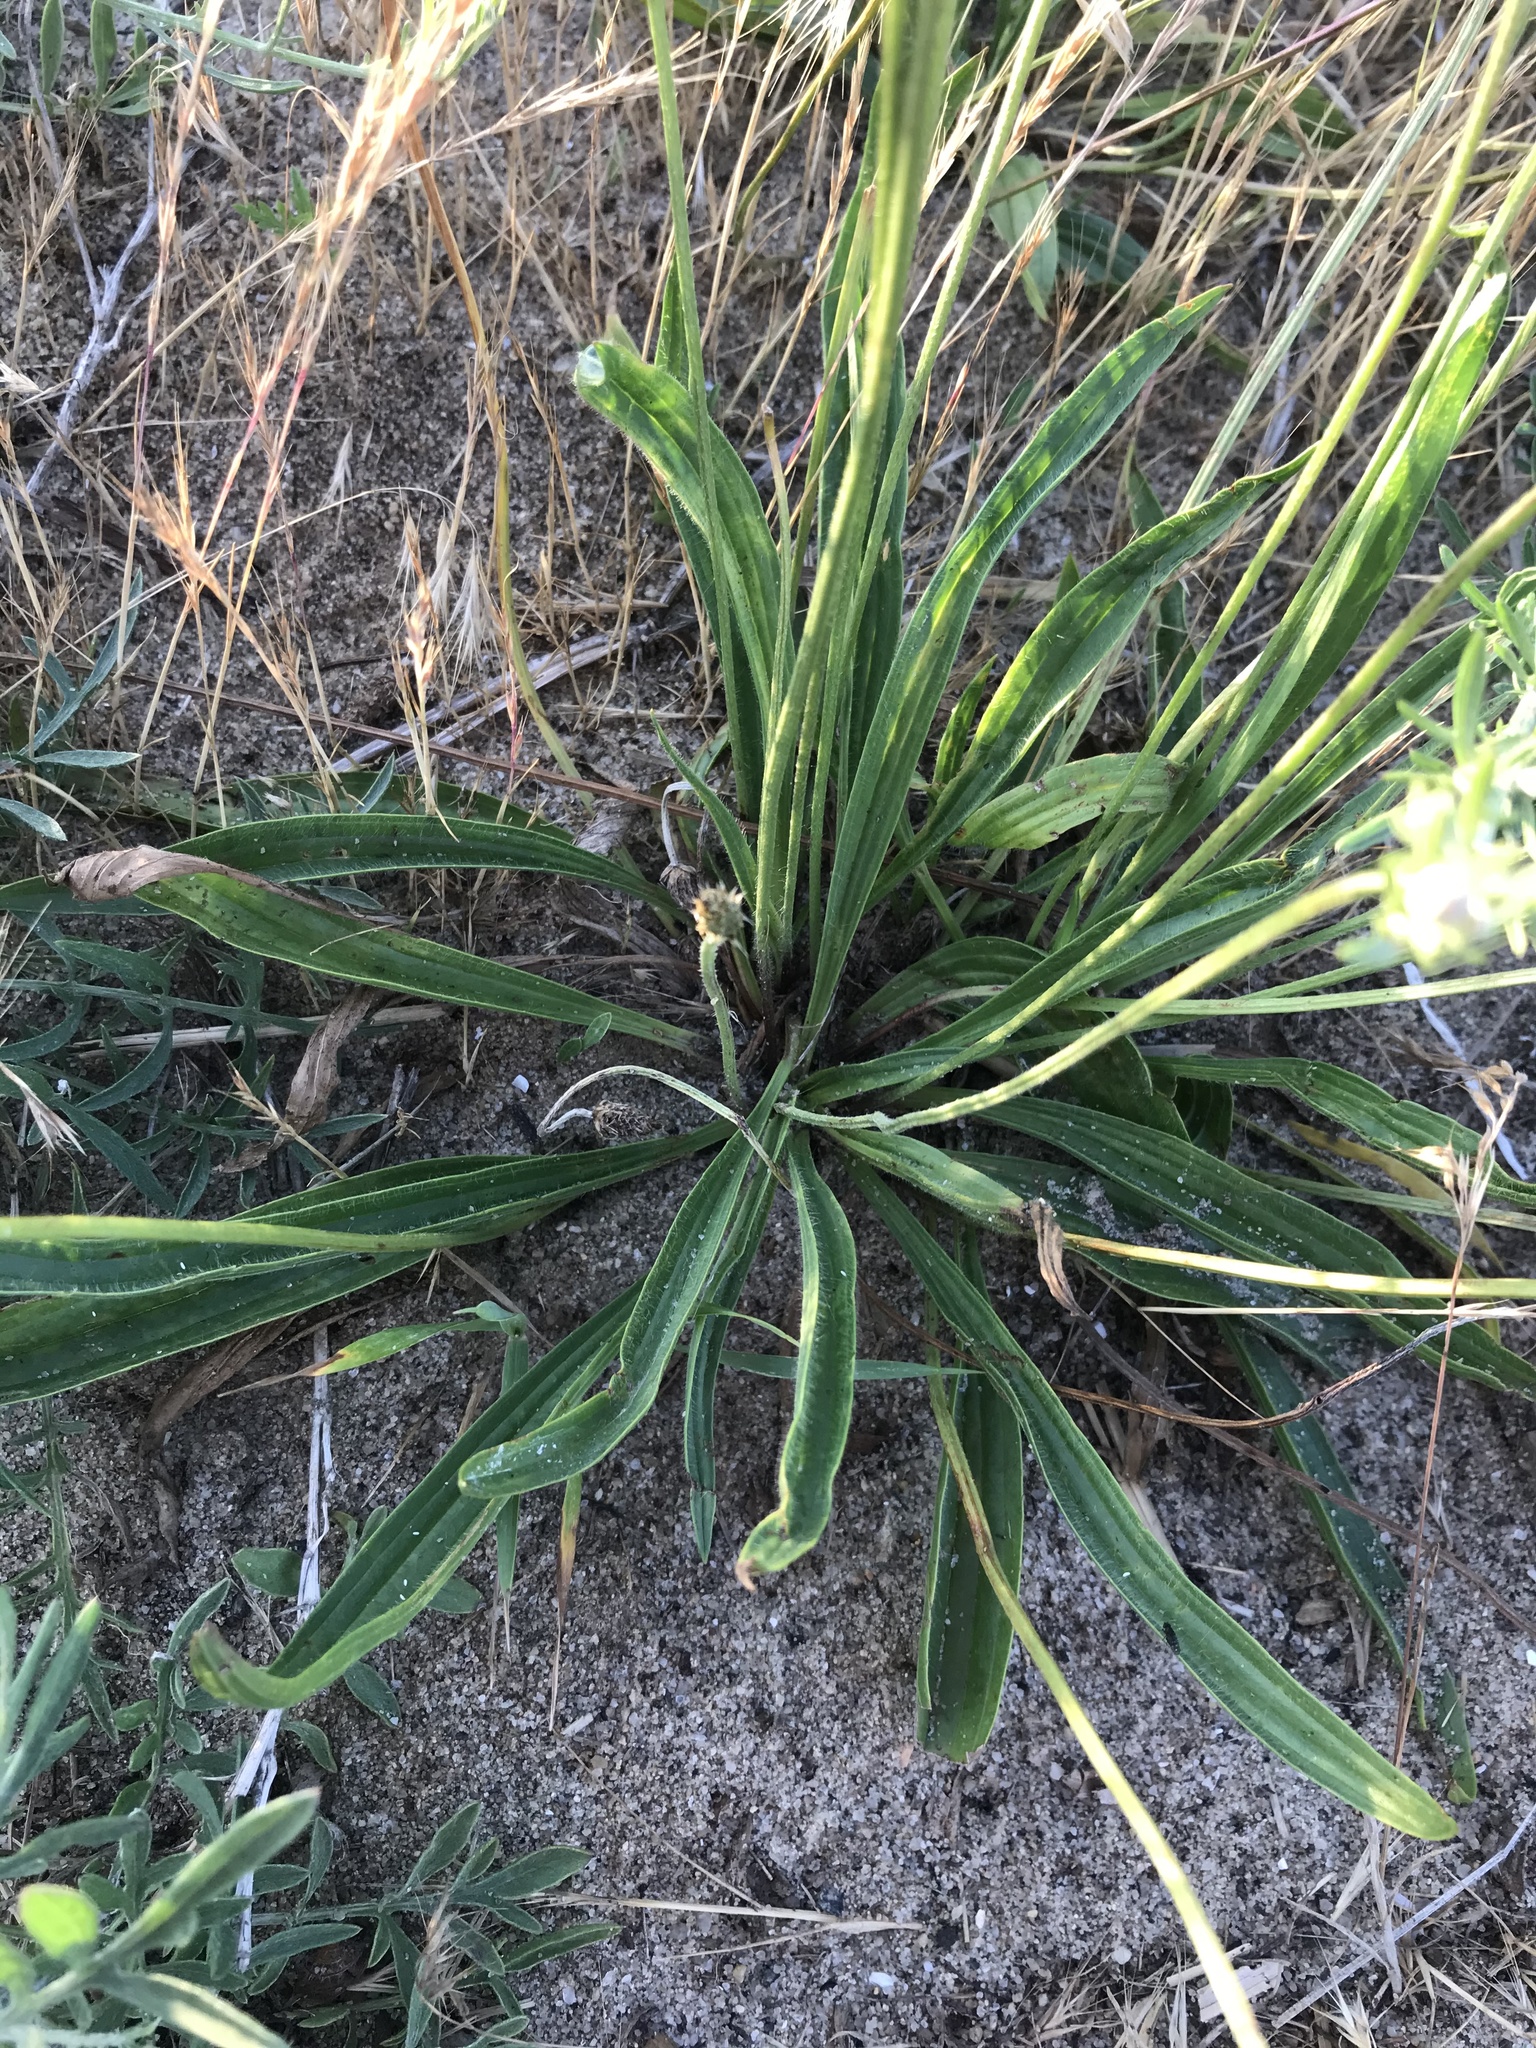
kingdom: Plantae
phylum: Tracheophyta
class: Magnoliopsida
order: Lamiales
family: Plantaginaceae
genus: Plantago
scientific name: Plantago lanceolata
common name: Ribwort plantain
